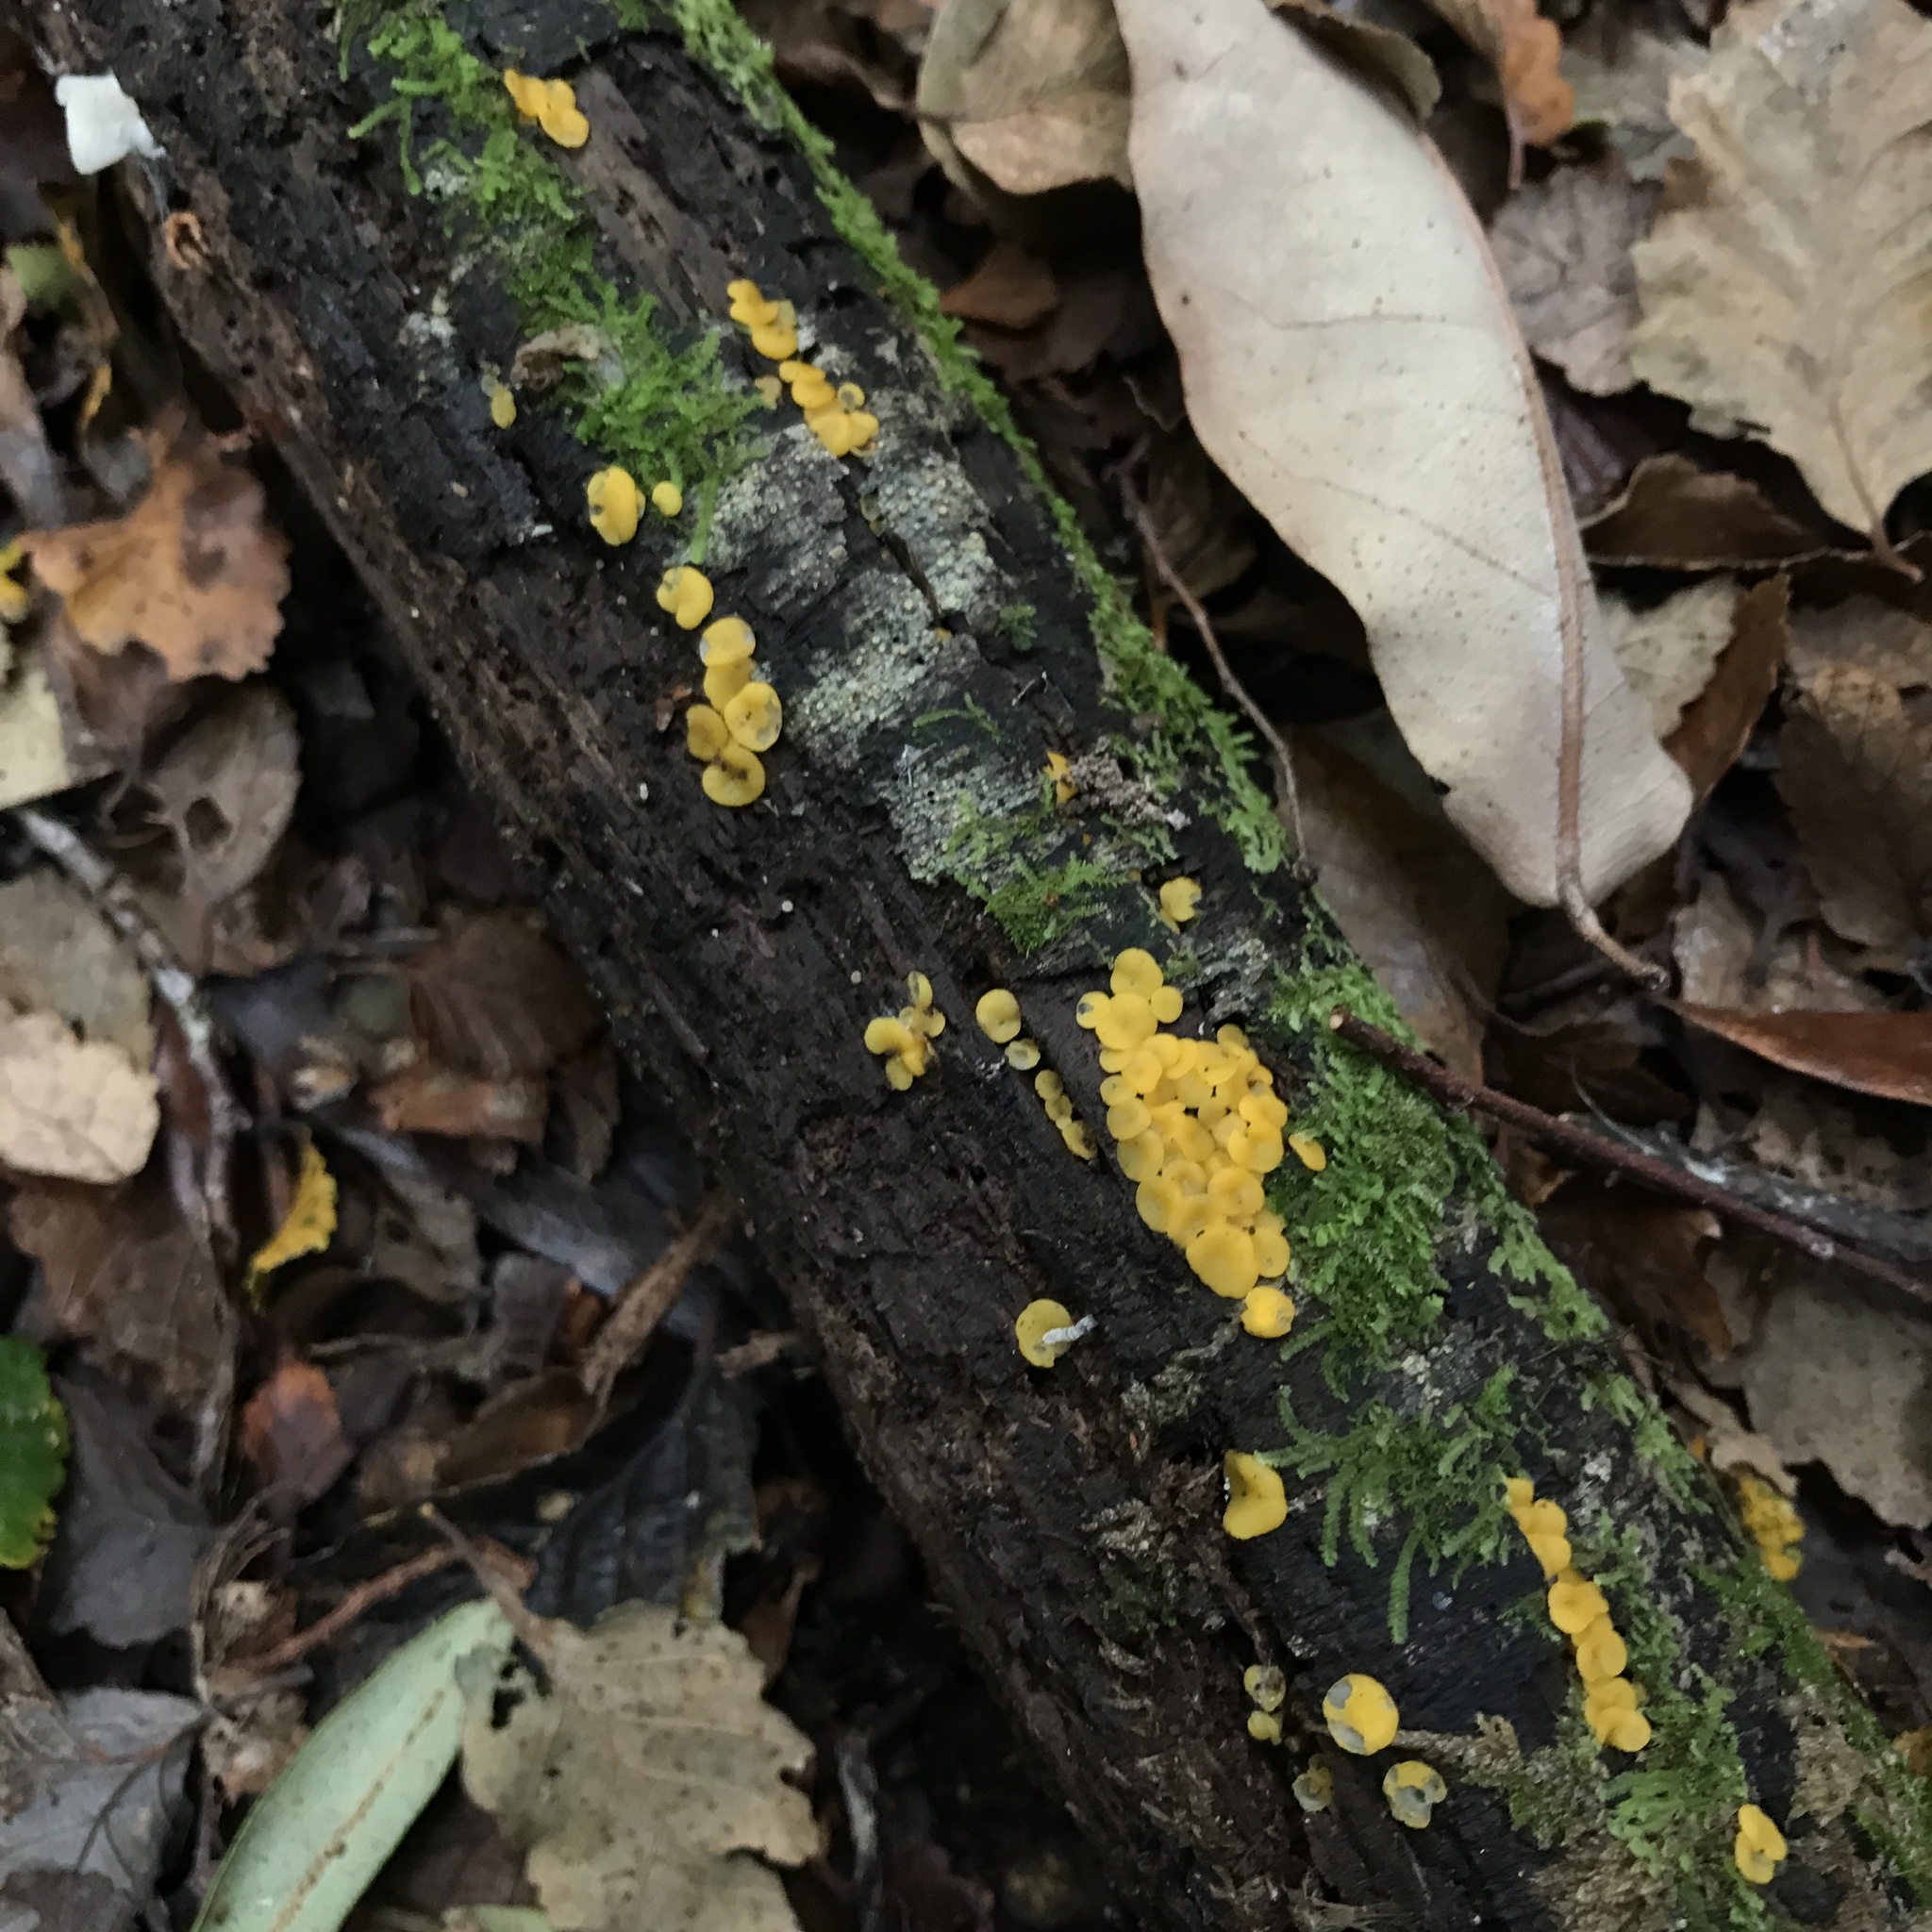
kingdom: Fungi
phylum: Ascomycota
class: Leotiomycetes
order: Helotiales
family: Pezizellaceae
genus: Calycina
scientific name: Calycina citrina
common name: Yellow fairy cups
